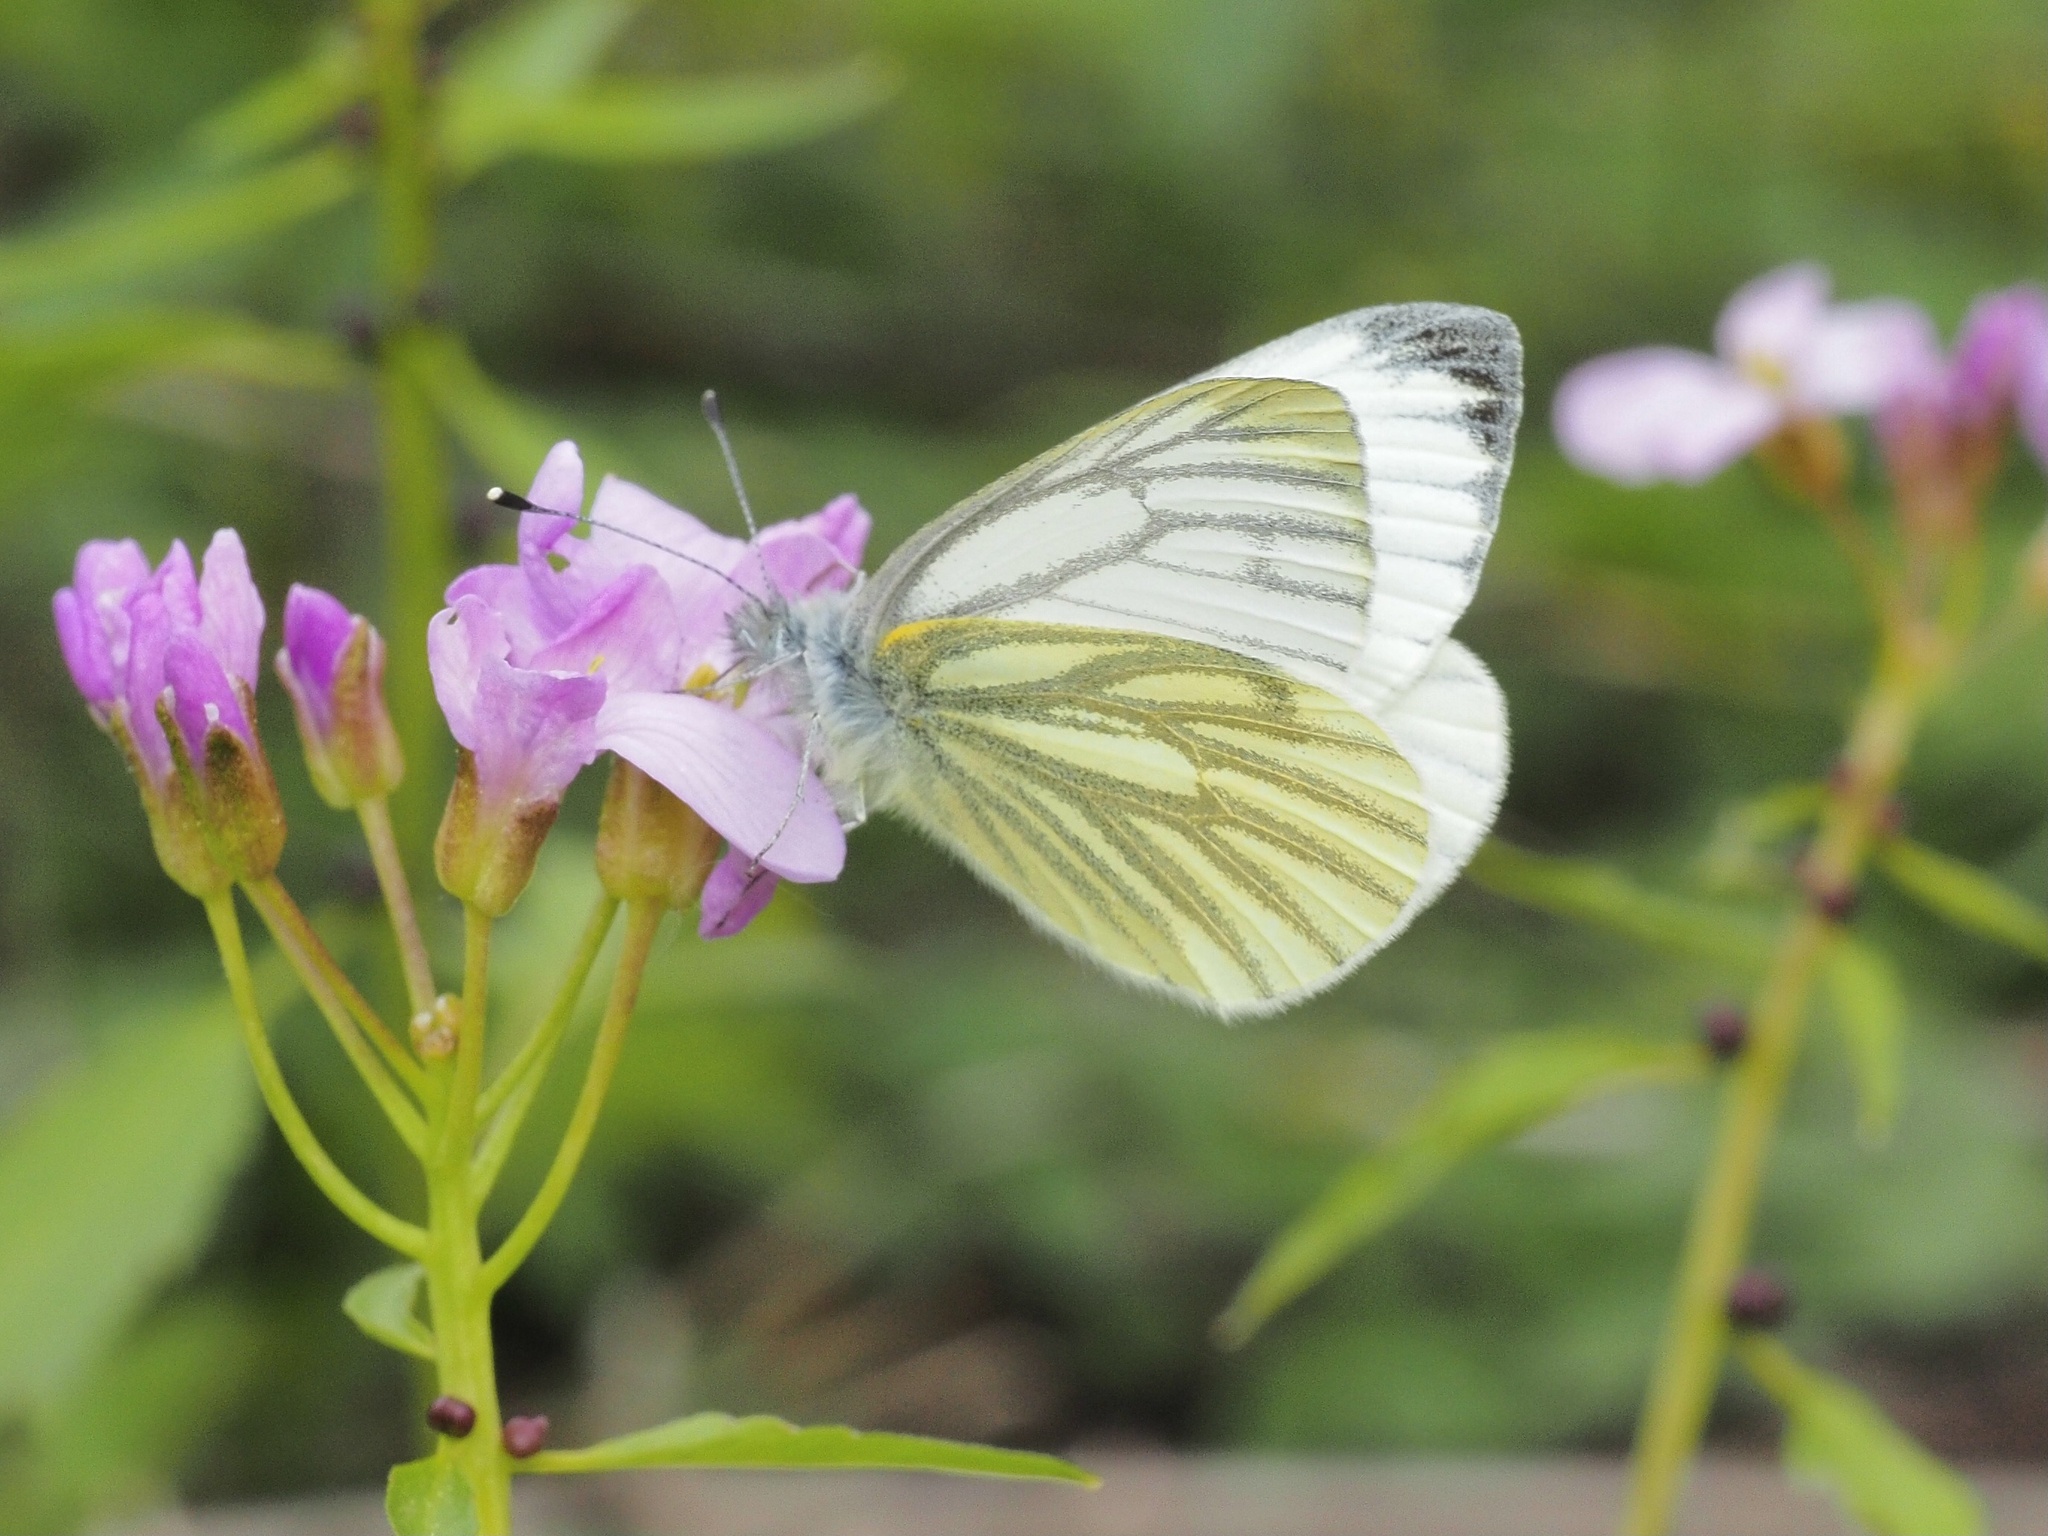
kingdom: Animalia
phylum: Arthropoda
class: Insecta
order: Lepidoptera
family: Pieridae
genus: Pieris
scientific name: Pieris napi
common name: Green-veined white
